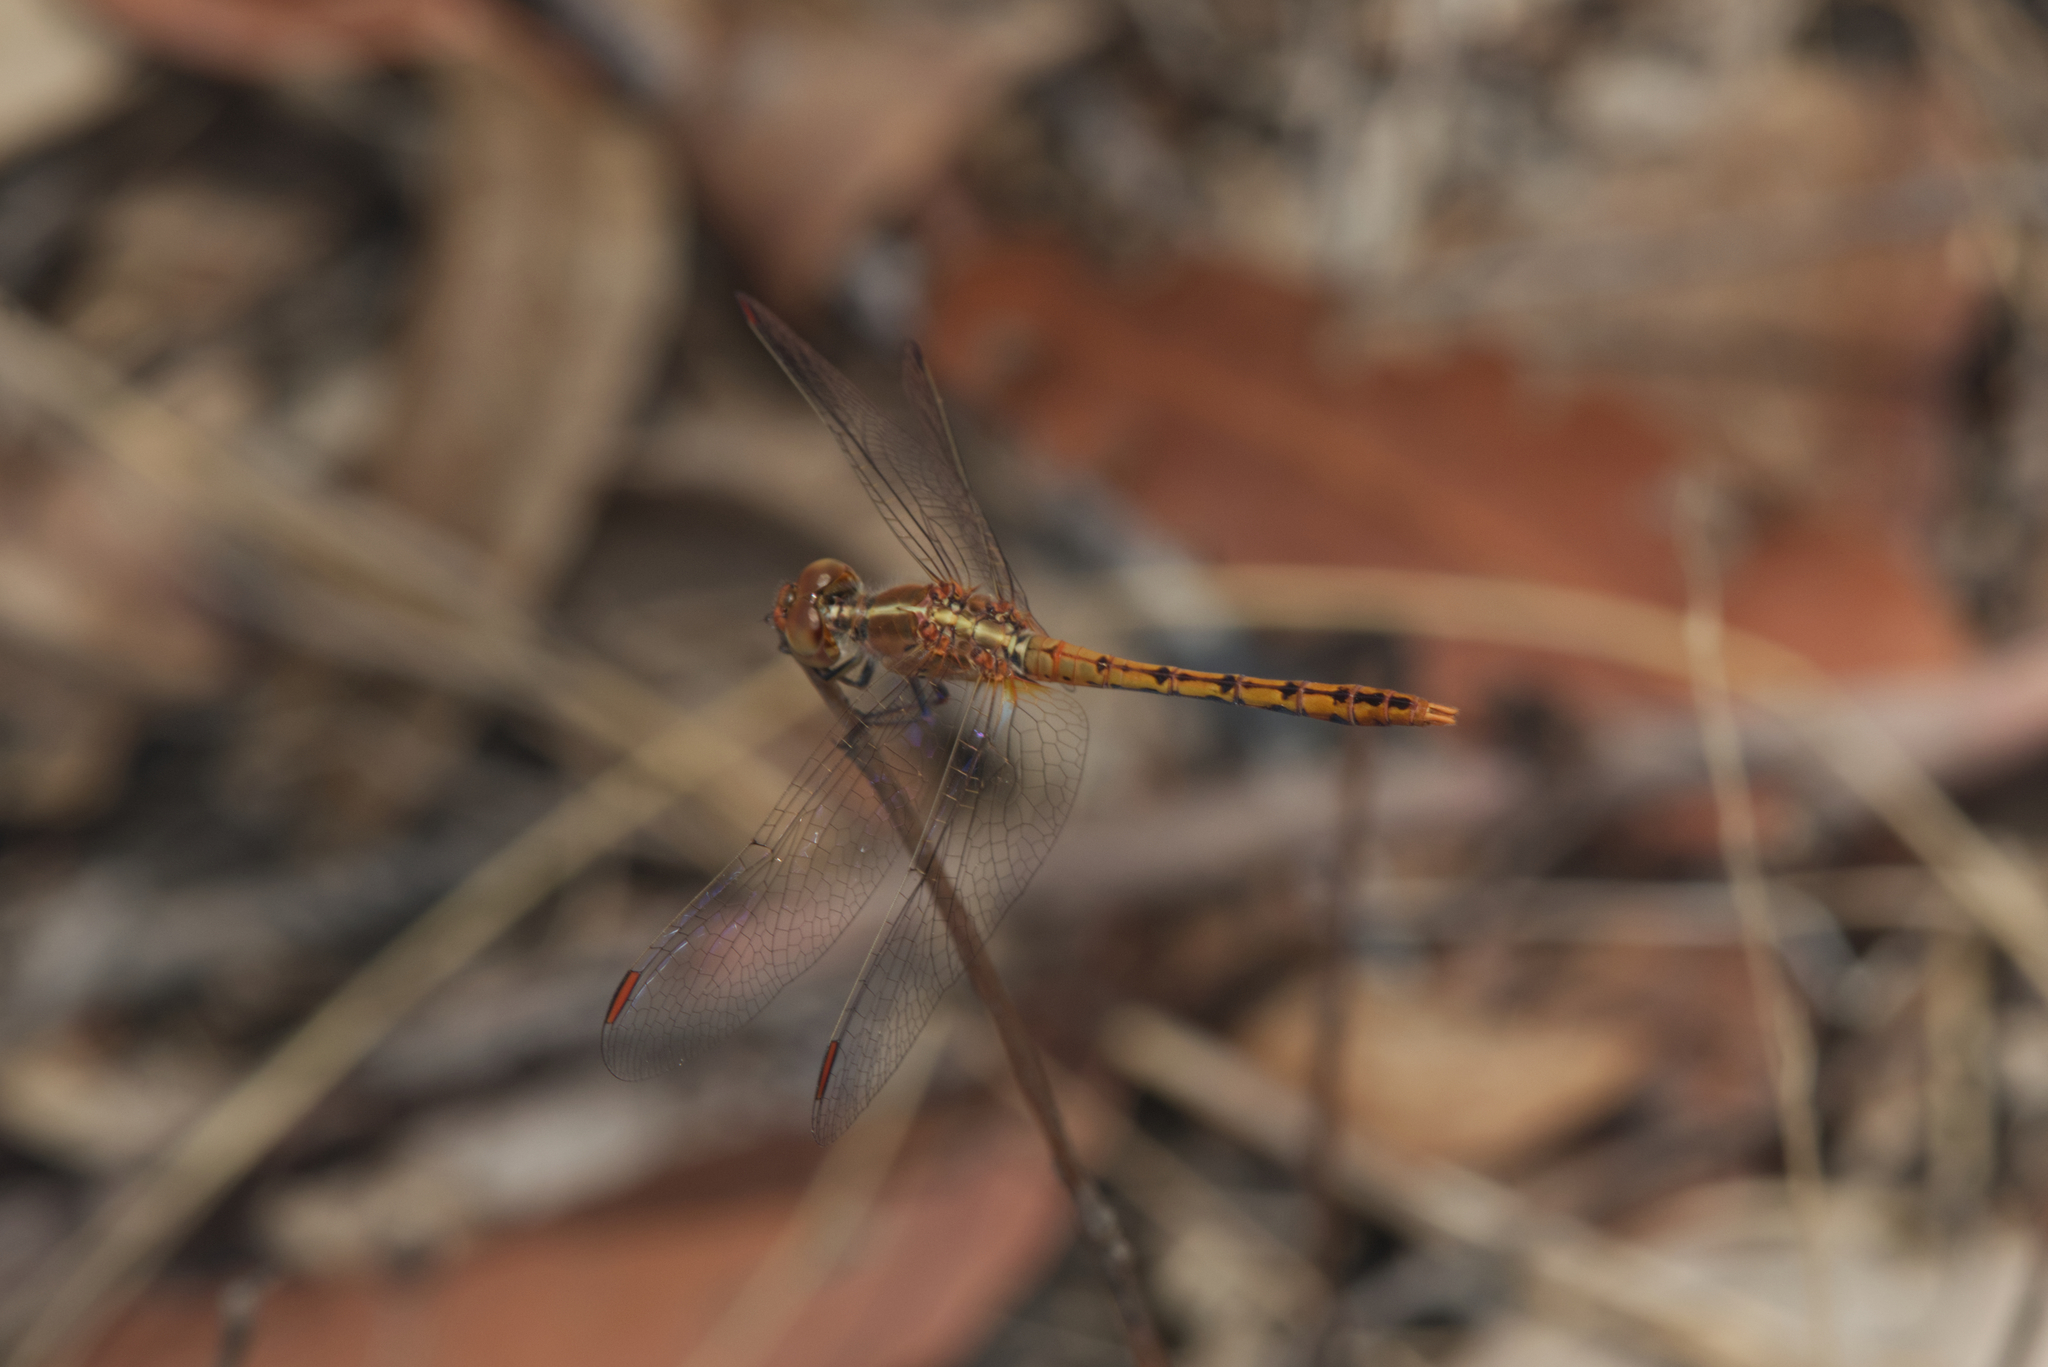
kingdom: Animalia
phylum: Arthropoda
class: Insecta
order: Odonata
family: Libellulidae
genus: Diplacodes
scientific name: Diplacodes bipunctata
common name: Red percher dragonfly
